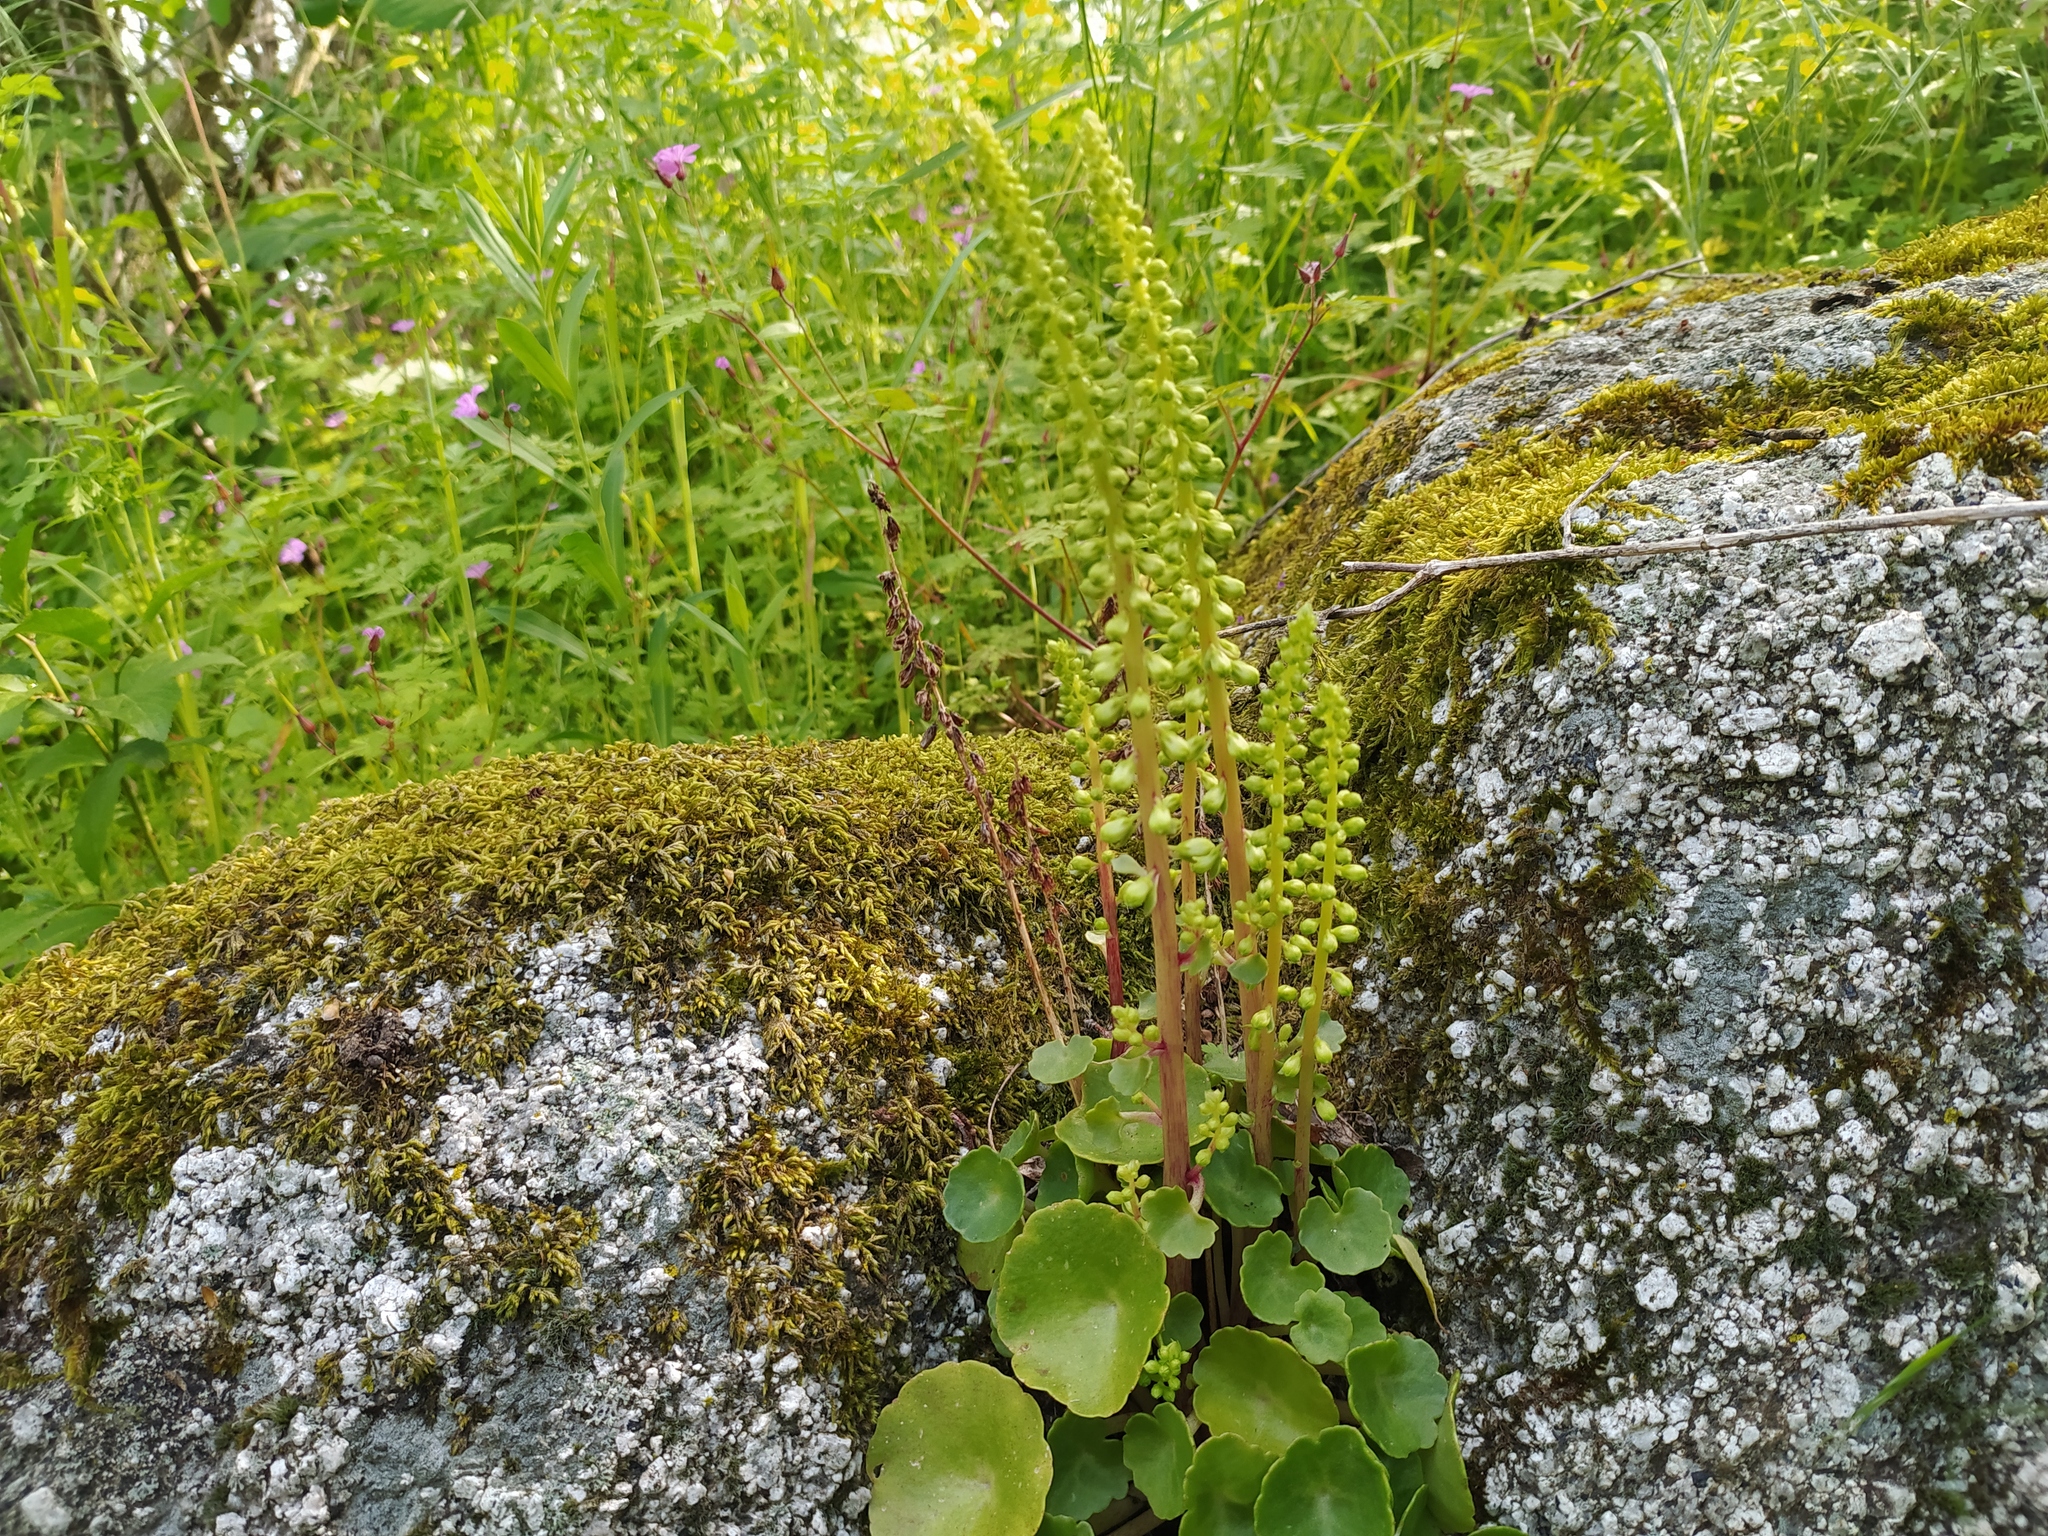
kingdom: Plantae
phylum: Tracheophyta
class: Magnoliopsida
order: Saxifragales
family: Crassulaceae
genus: Umbilicus
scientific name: Umbilicus rupestris
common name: Navelwort
